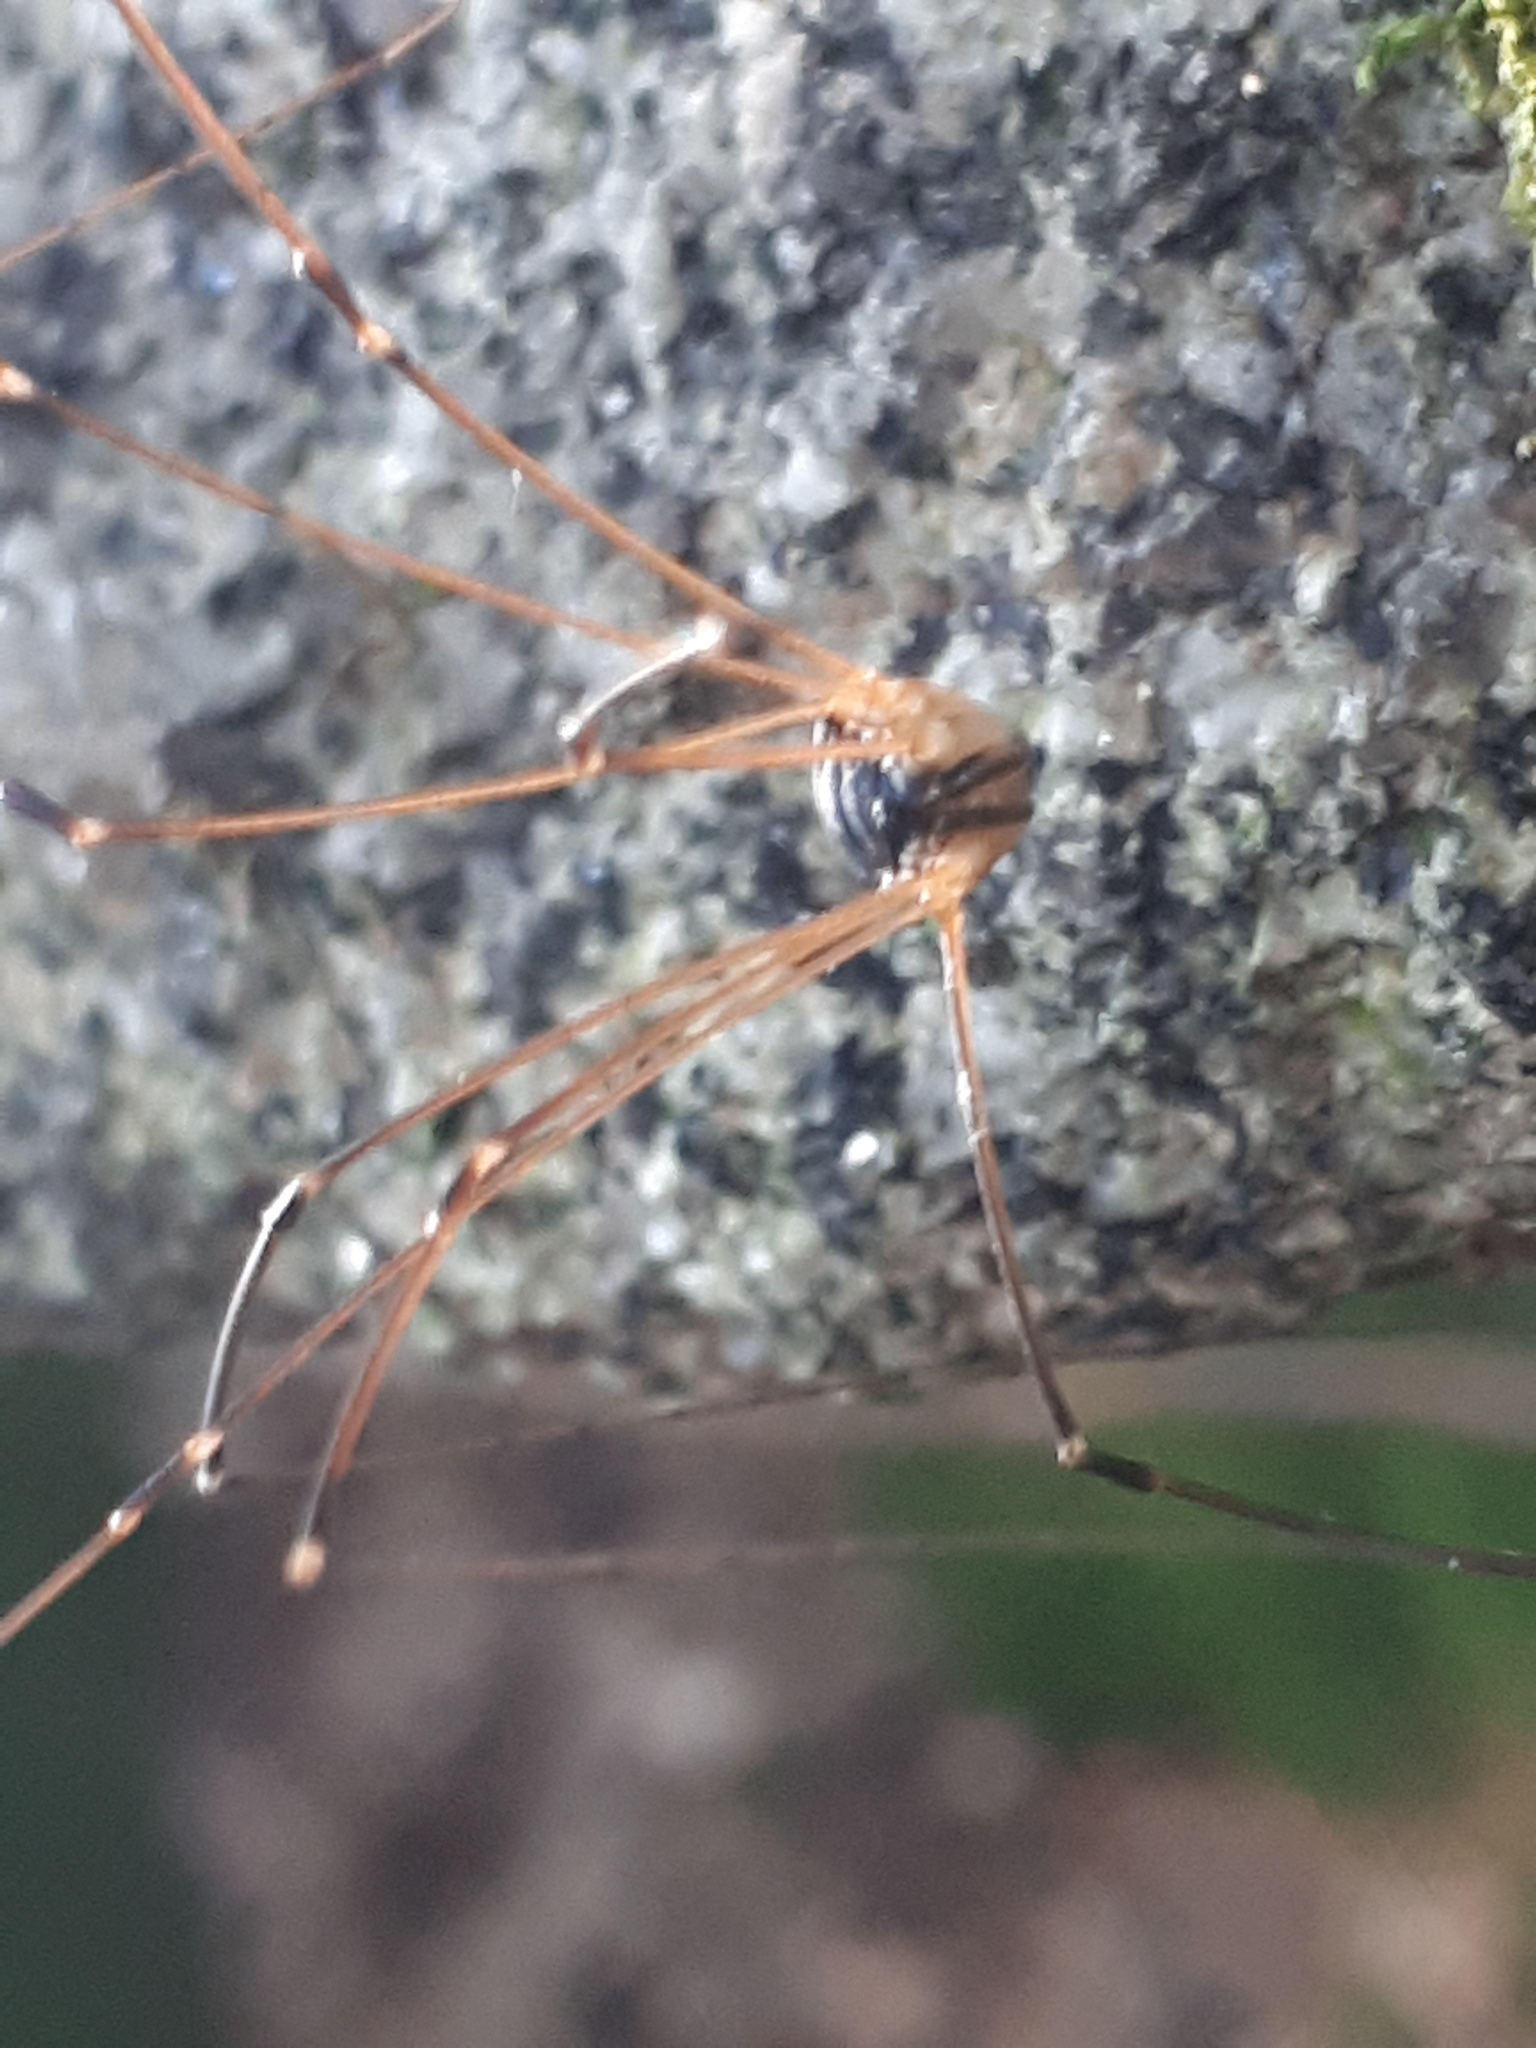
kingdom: Animalia
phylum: Arthropoda
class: Arachnida
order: Opiliones
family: Sclerosomatidae
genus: Leiobunum
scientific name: Leiobunum rupestre
